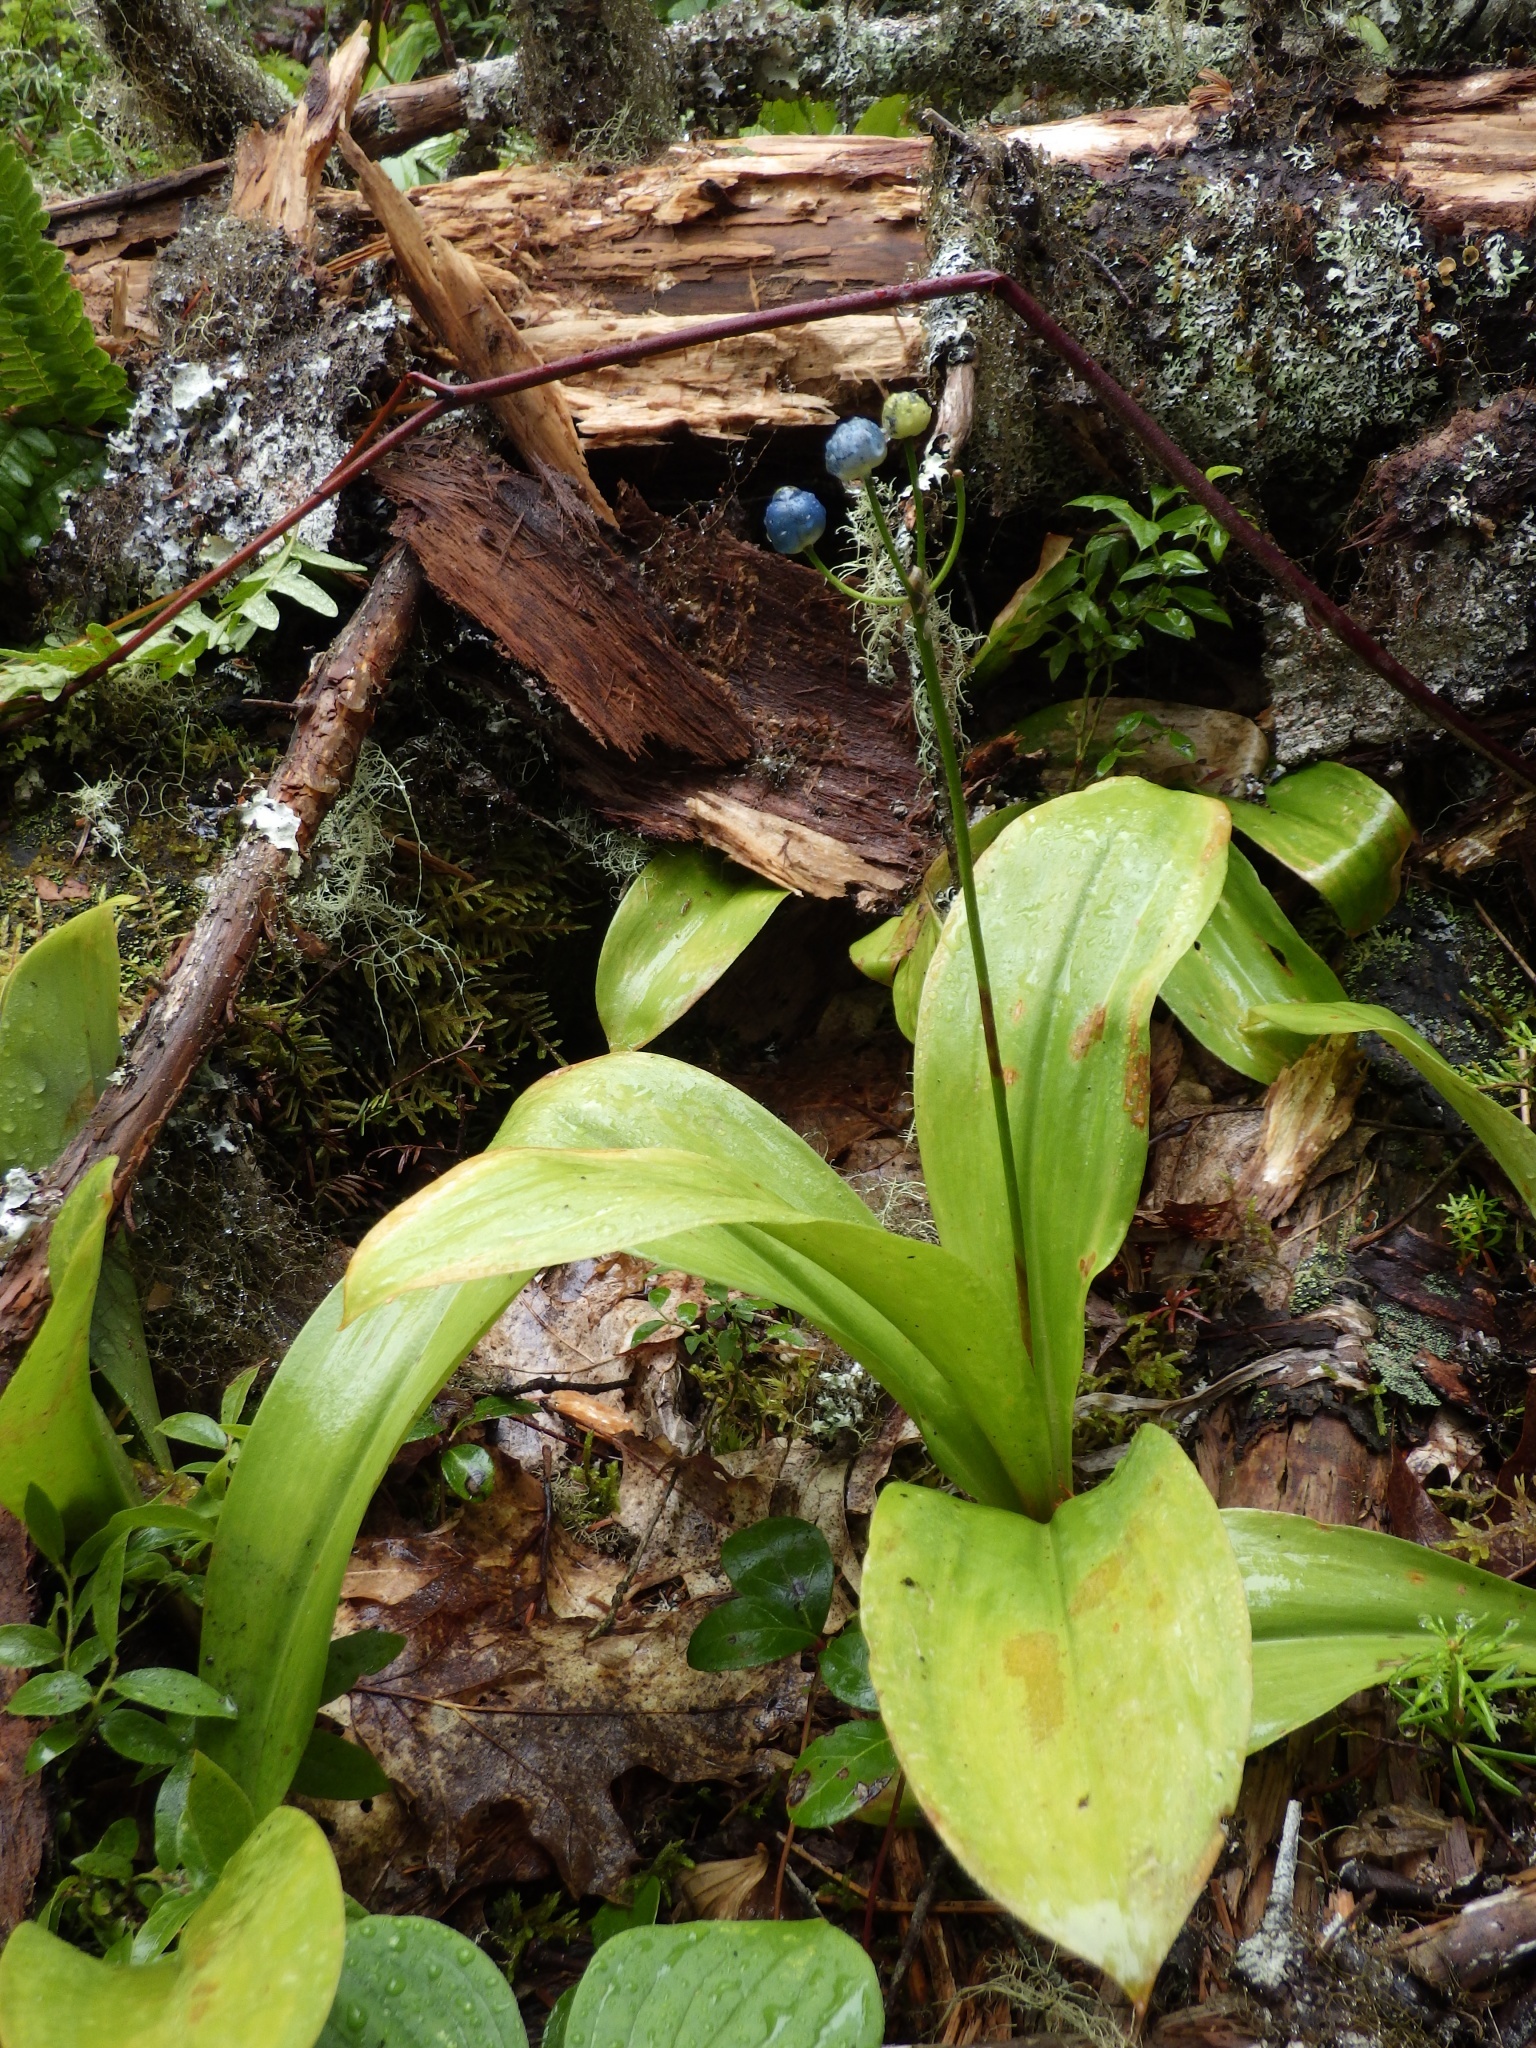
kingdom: Plantae
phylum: Tracheophyta
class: Liliopsida
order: Liliales
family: Liliaceae
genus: Clintonia
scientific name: Clintonia borealis
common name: Yellow clintonia
